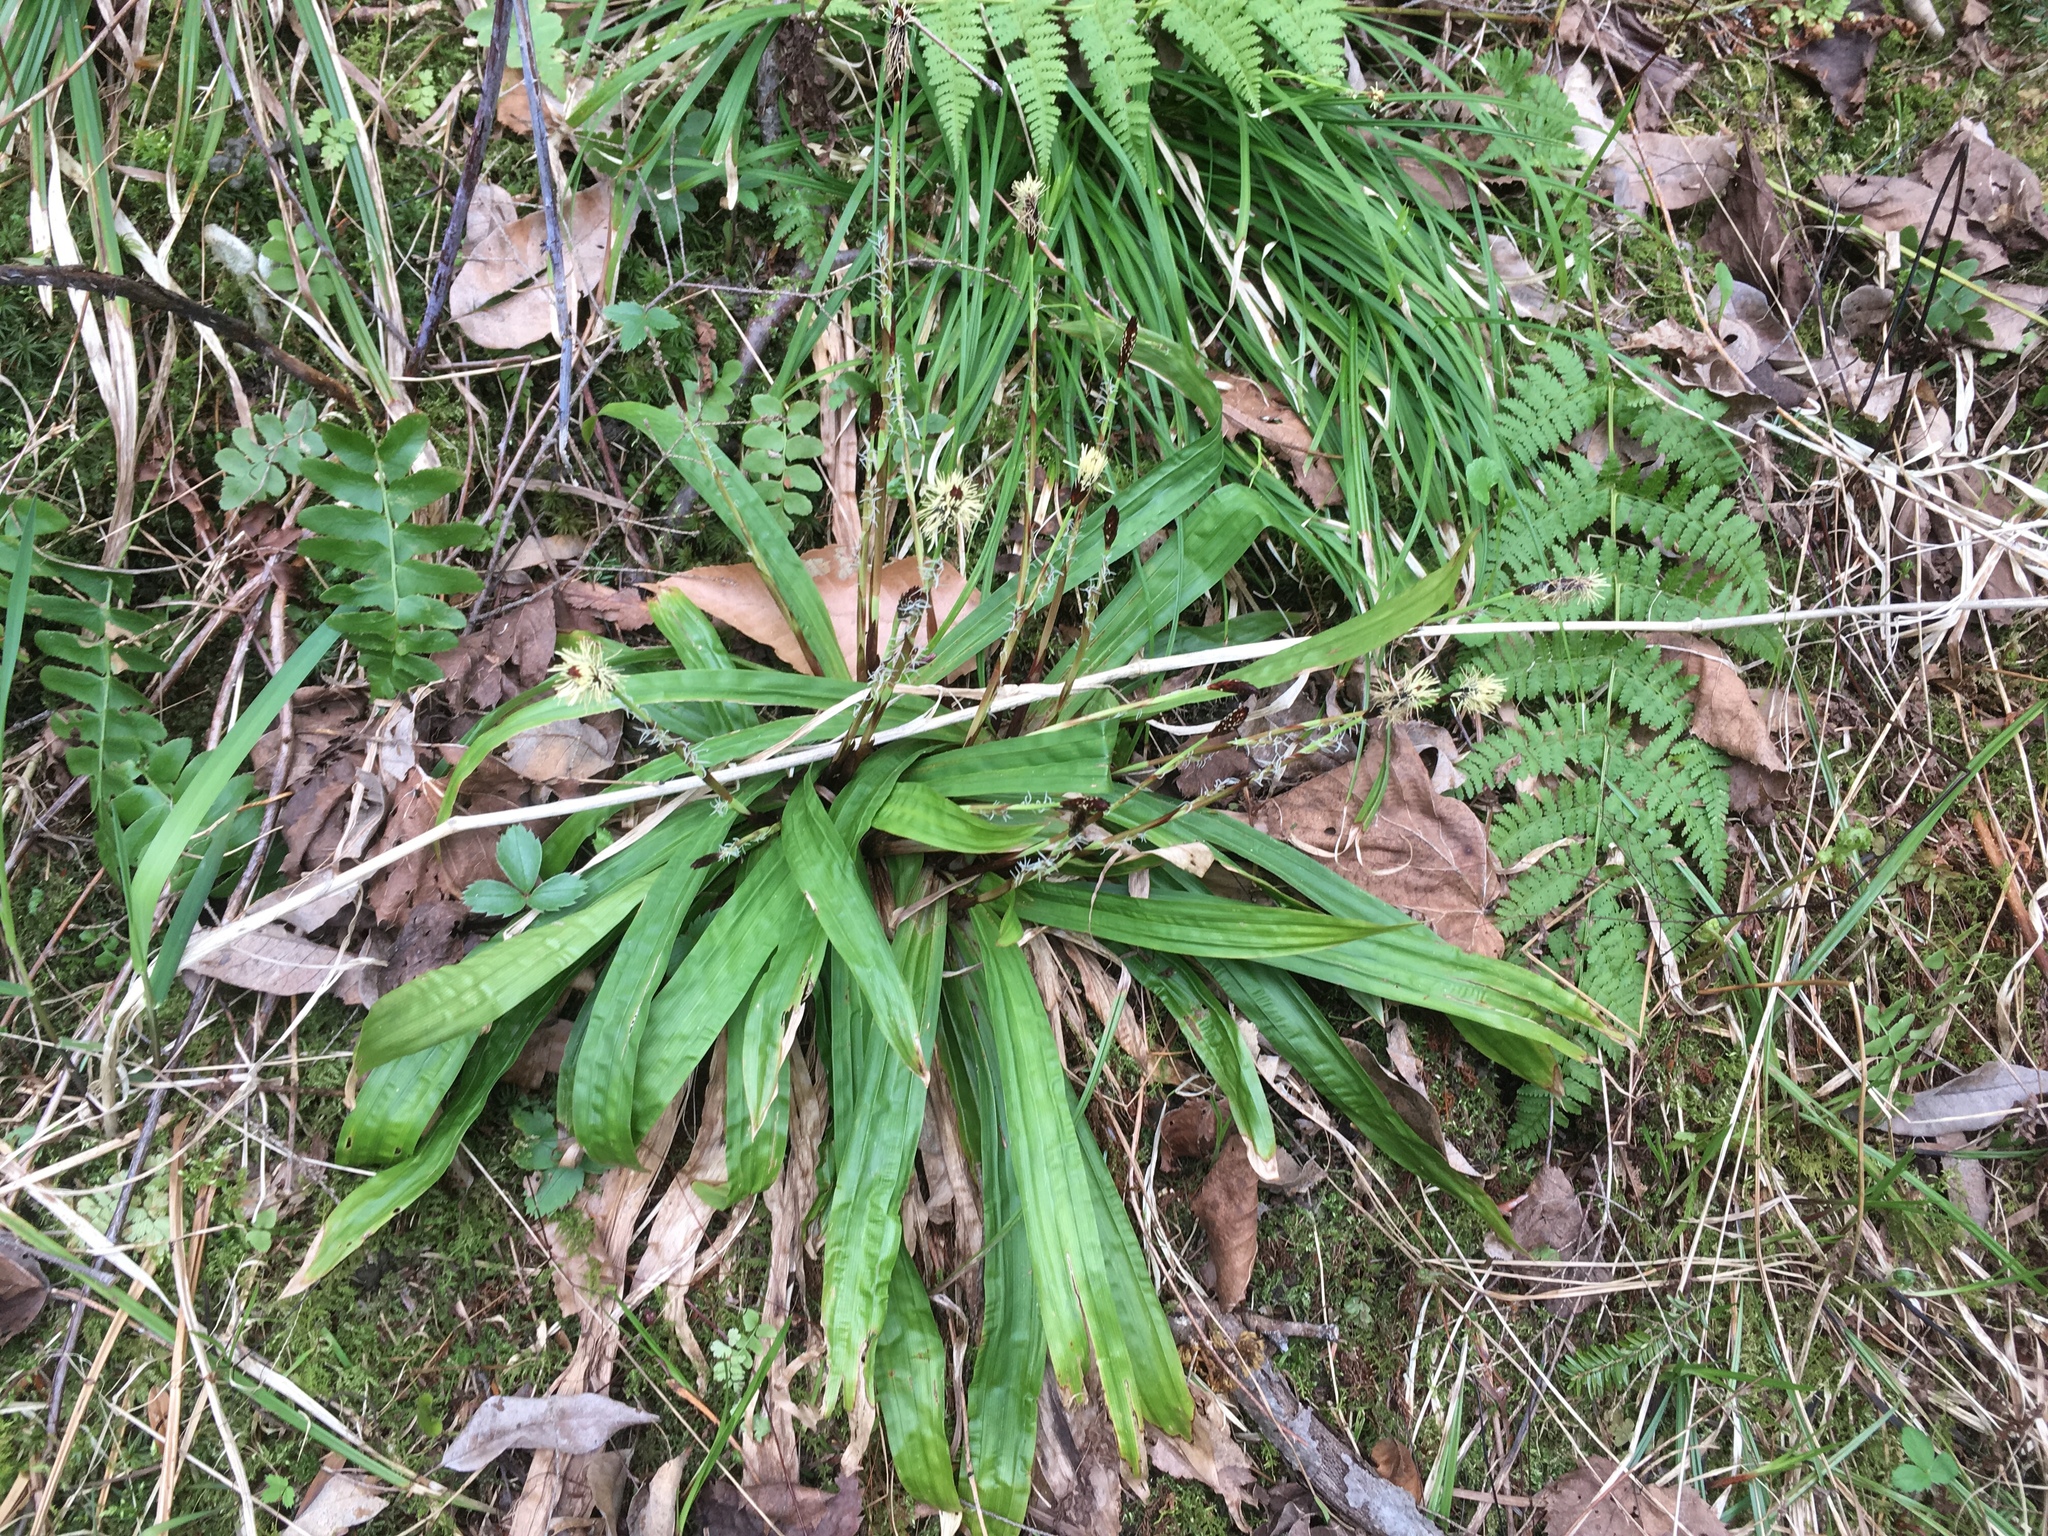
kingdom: Plantae
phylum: Tracheophyta
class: Liliopsida
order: Poales
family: Cyperaceae
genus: Carex
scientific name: Carex plantaginea
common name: Plantain-leaved sedge
